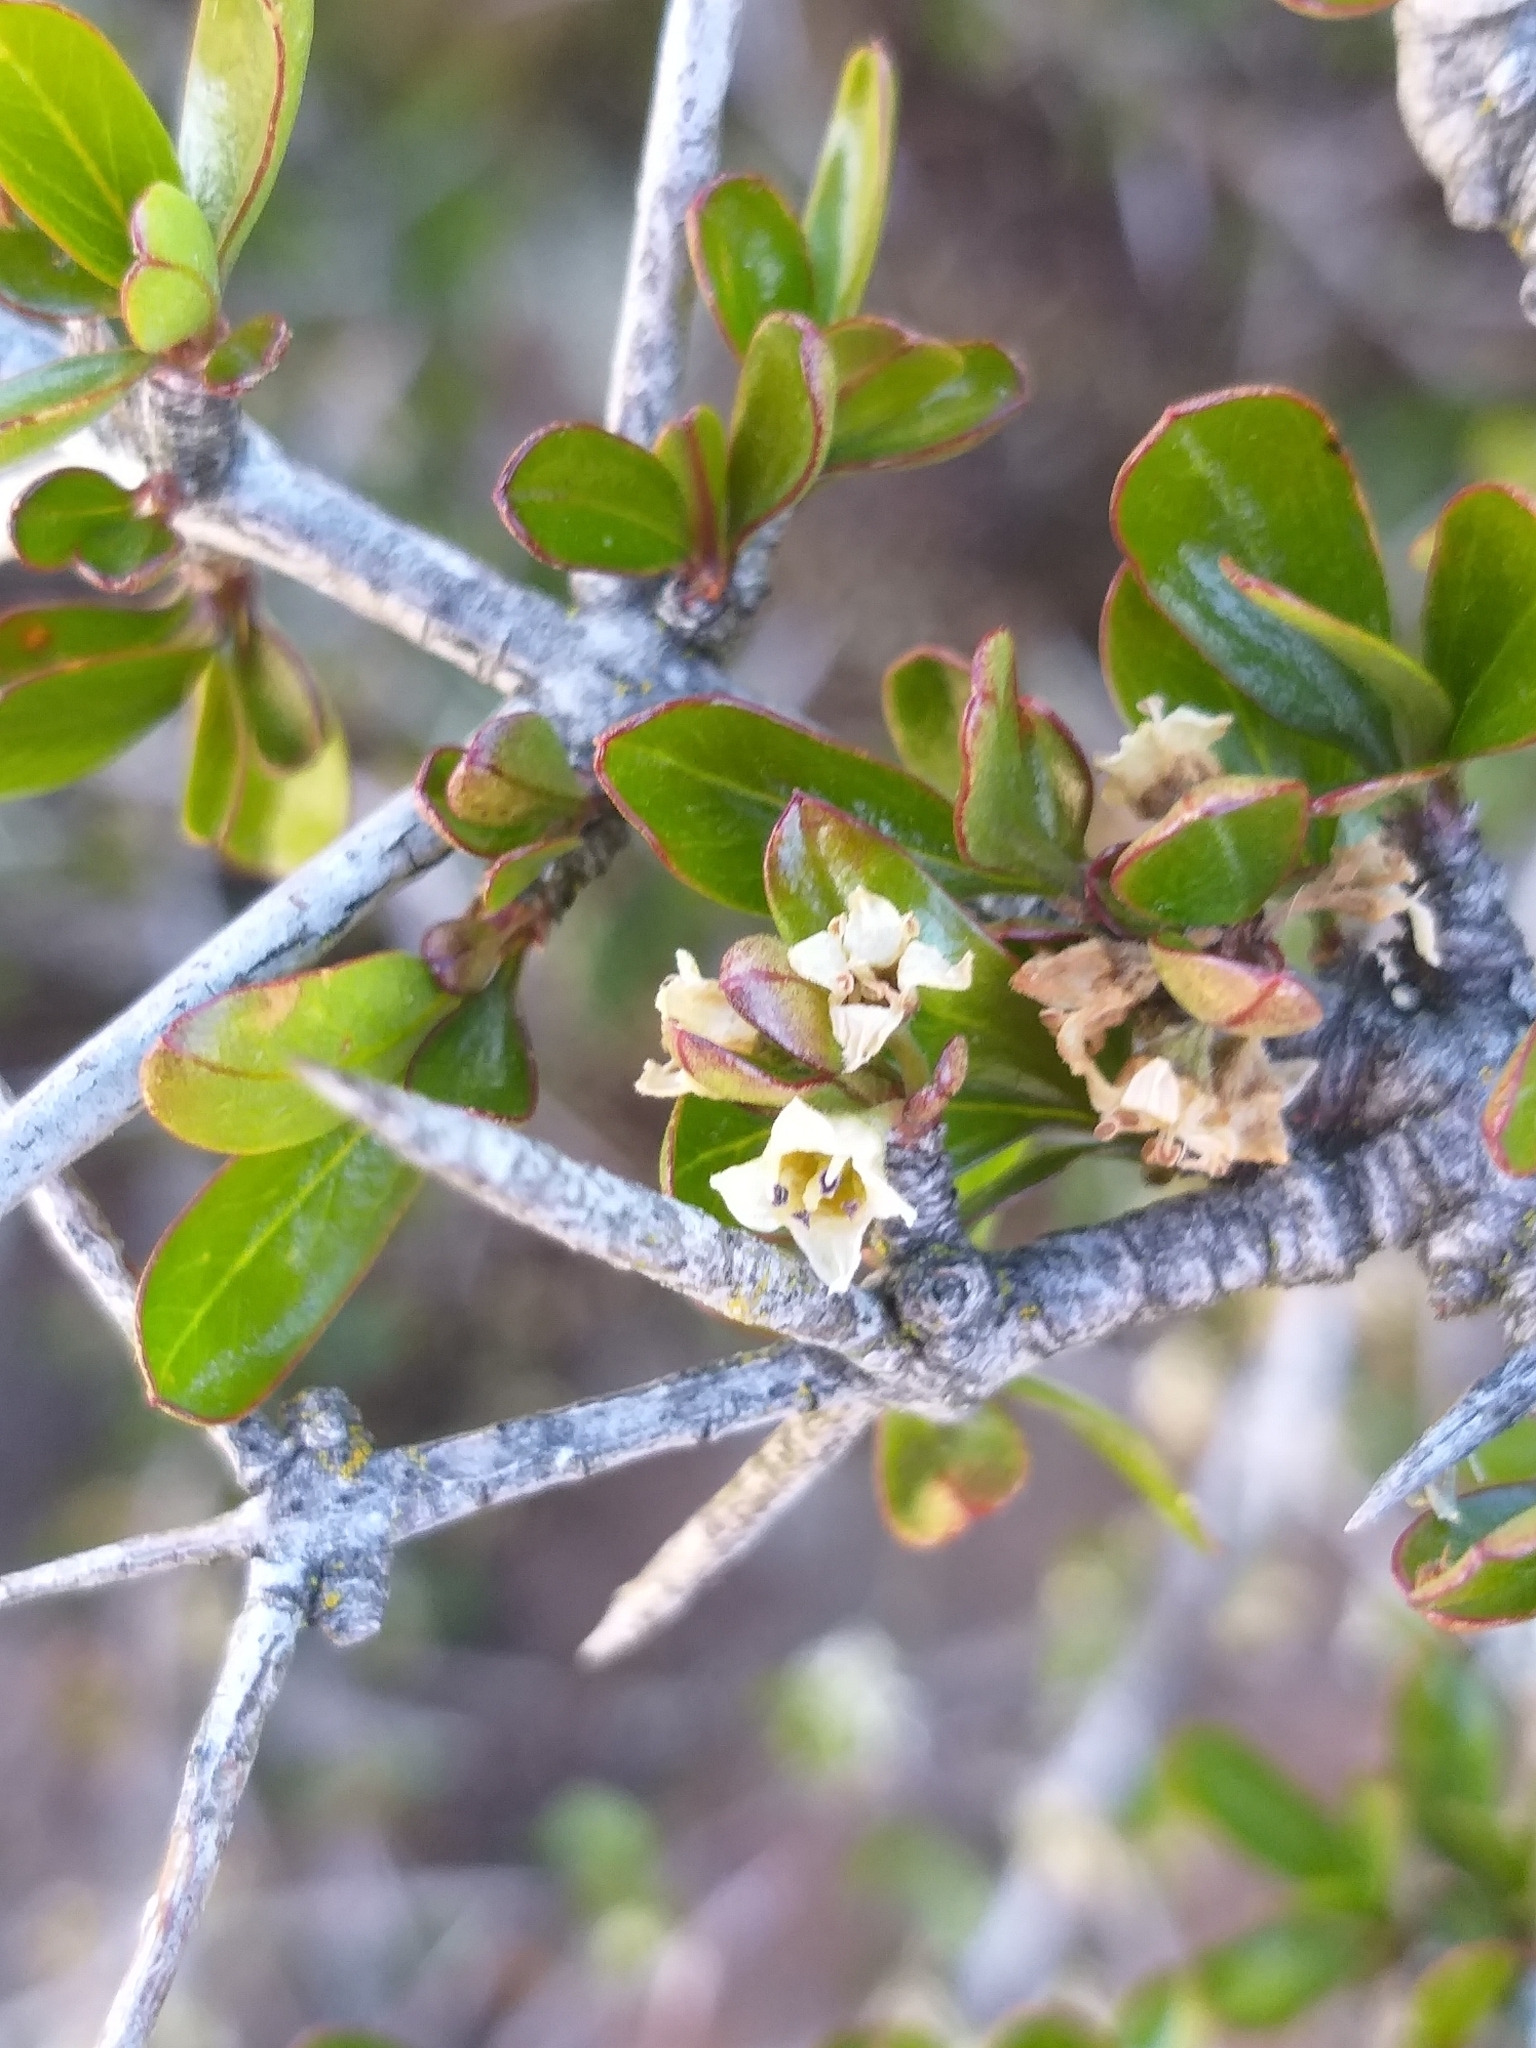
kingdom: Plantae
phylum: Tracheophyta
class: Magnoliopsida
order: Rosales
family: Rhamnaceae
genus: Discaria
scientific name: Discaria toumatou
